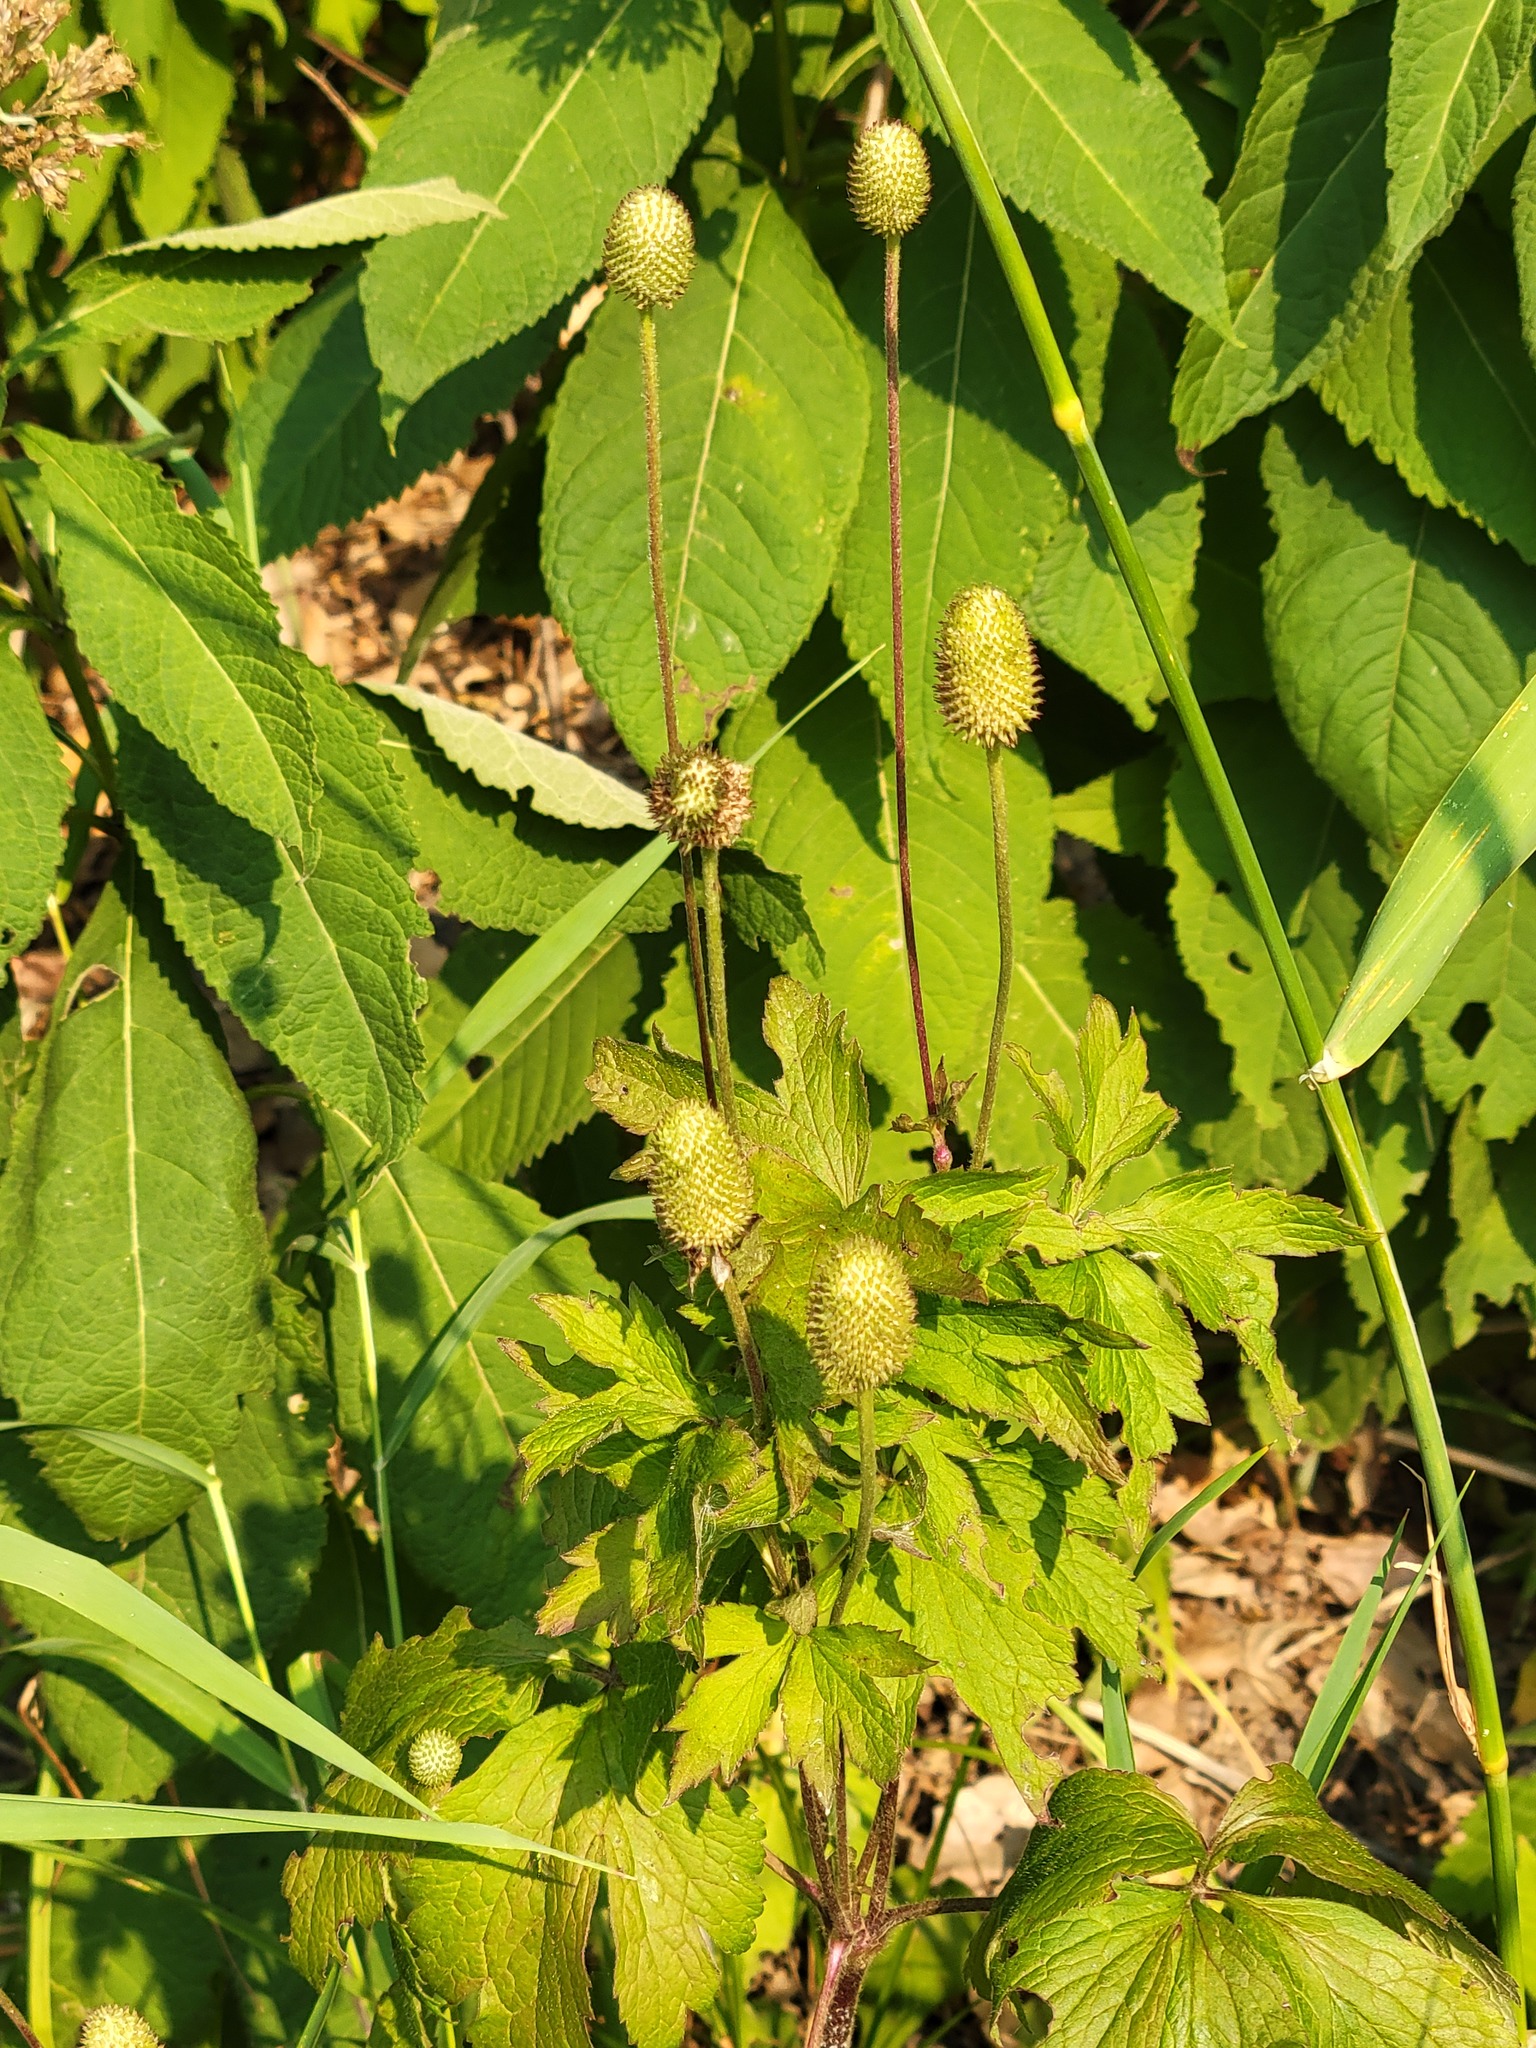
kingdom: Plantae
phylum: Tracheophyta
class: Magnoliopsida
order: Ranunculales
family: Ranunculaceae
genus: Anemone
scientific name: Anemone virginiana
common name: Tall anemone
